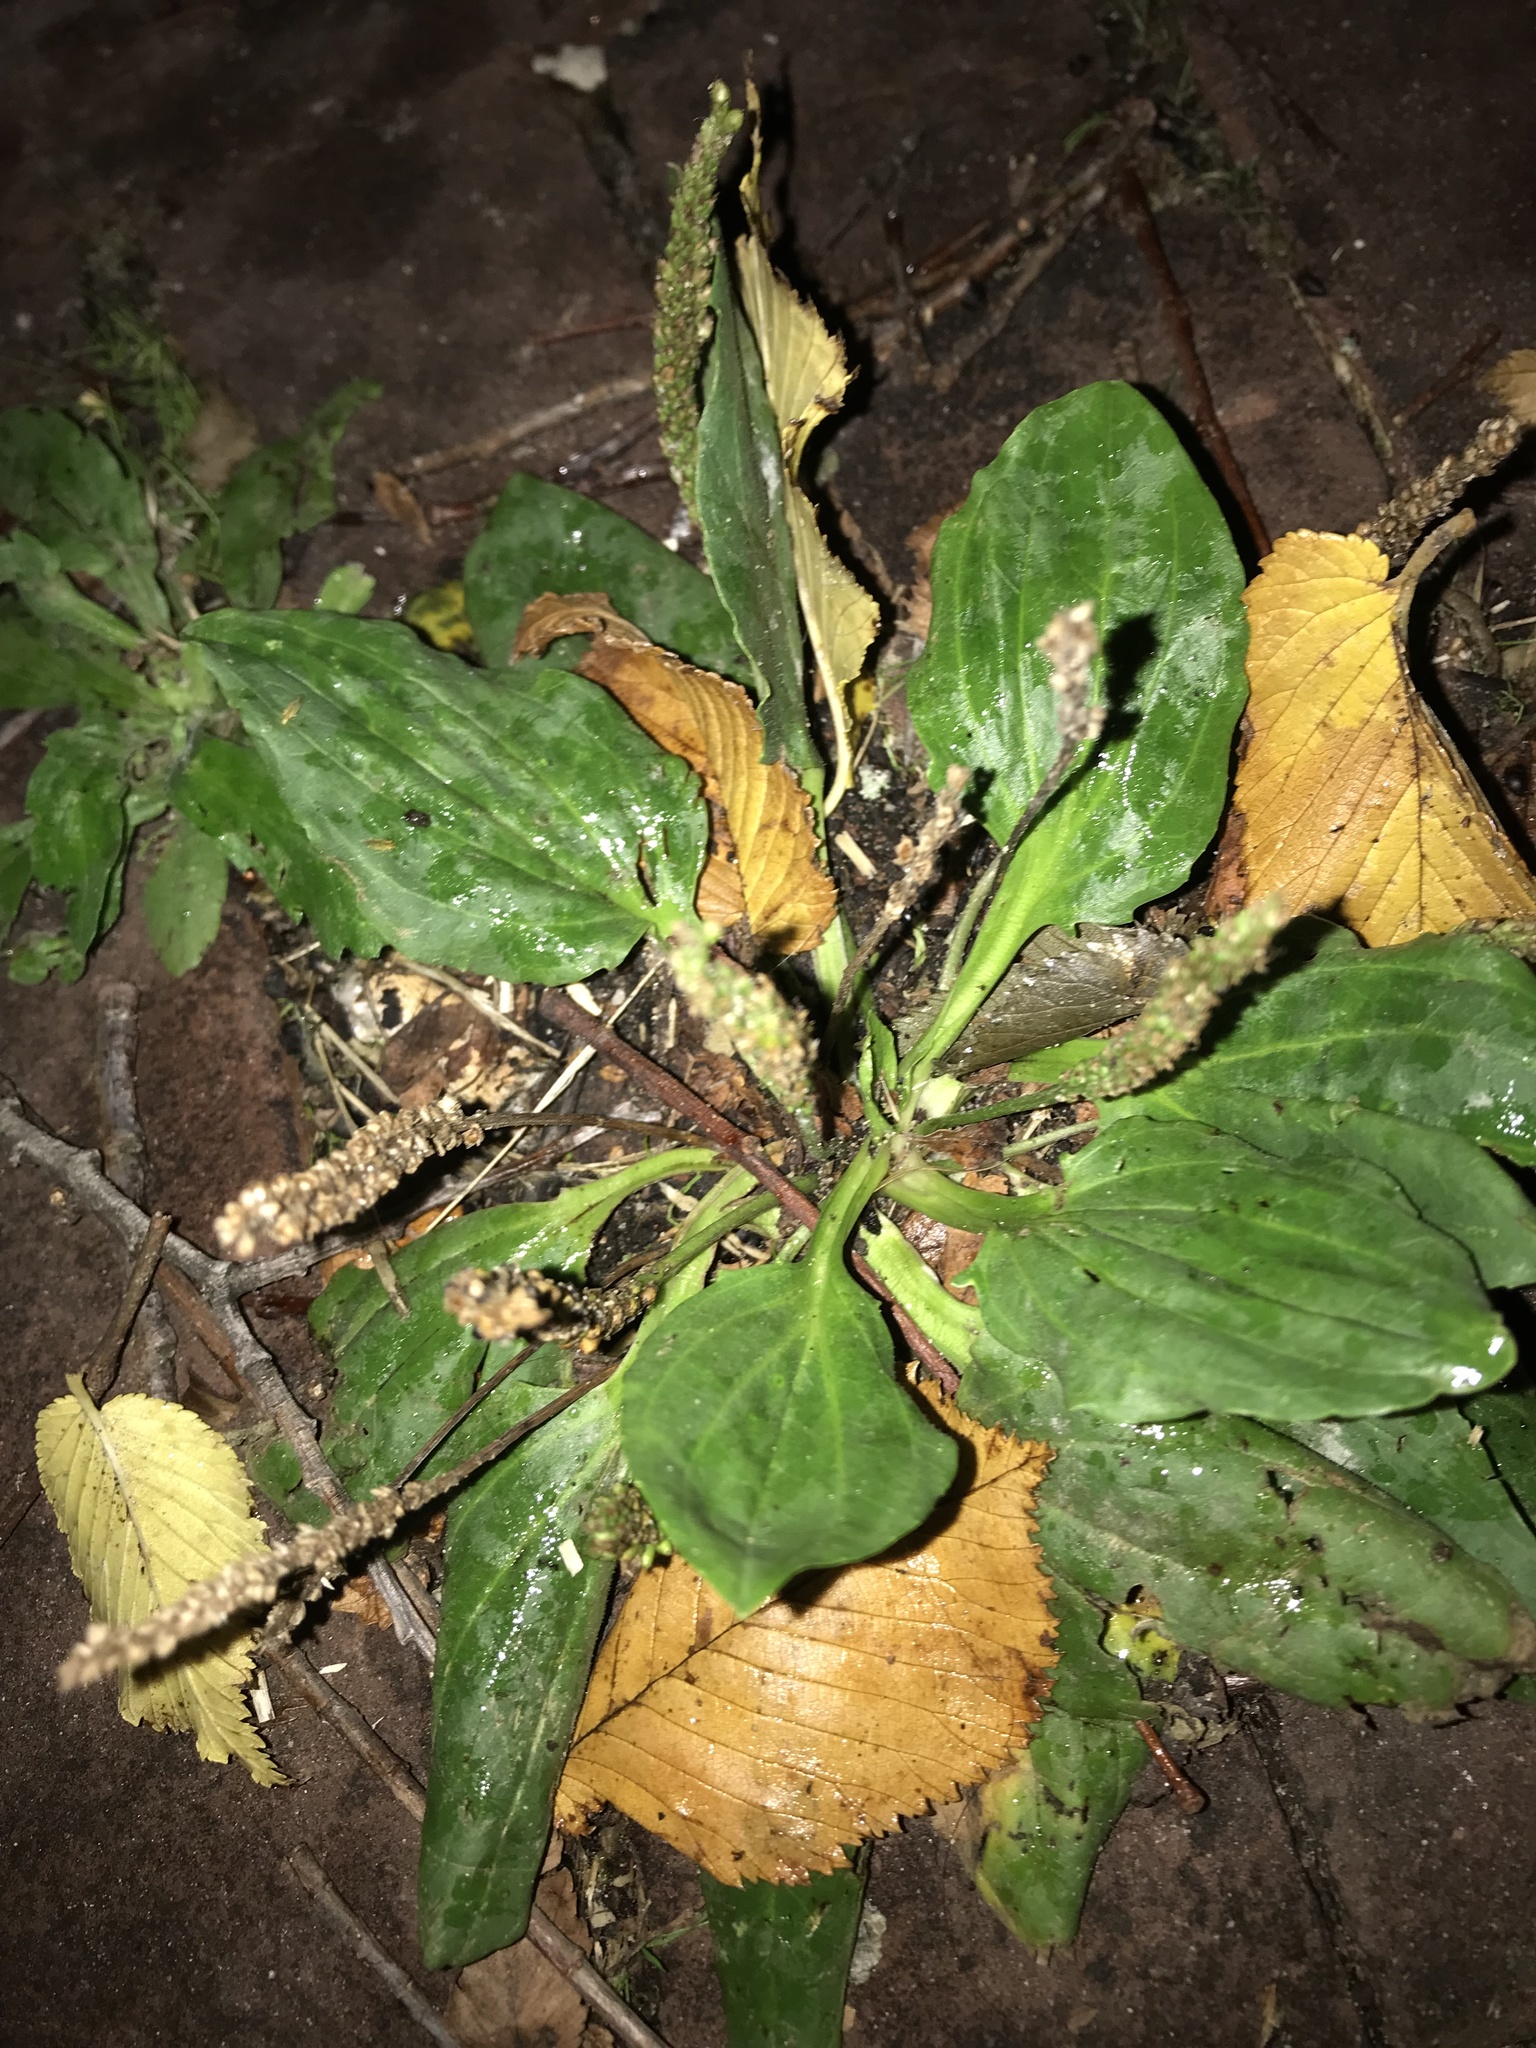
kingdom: Plantae
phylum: Tracheophyta
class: Magnoliopsida
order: Lamiales
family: Plantaginaceae
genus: Plantago
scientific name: Plantago major
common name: Common plantain
